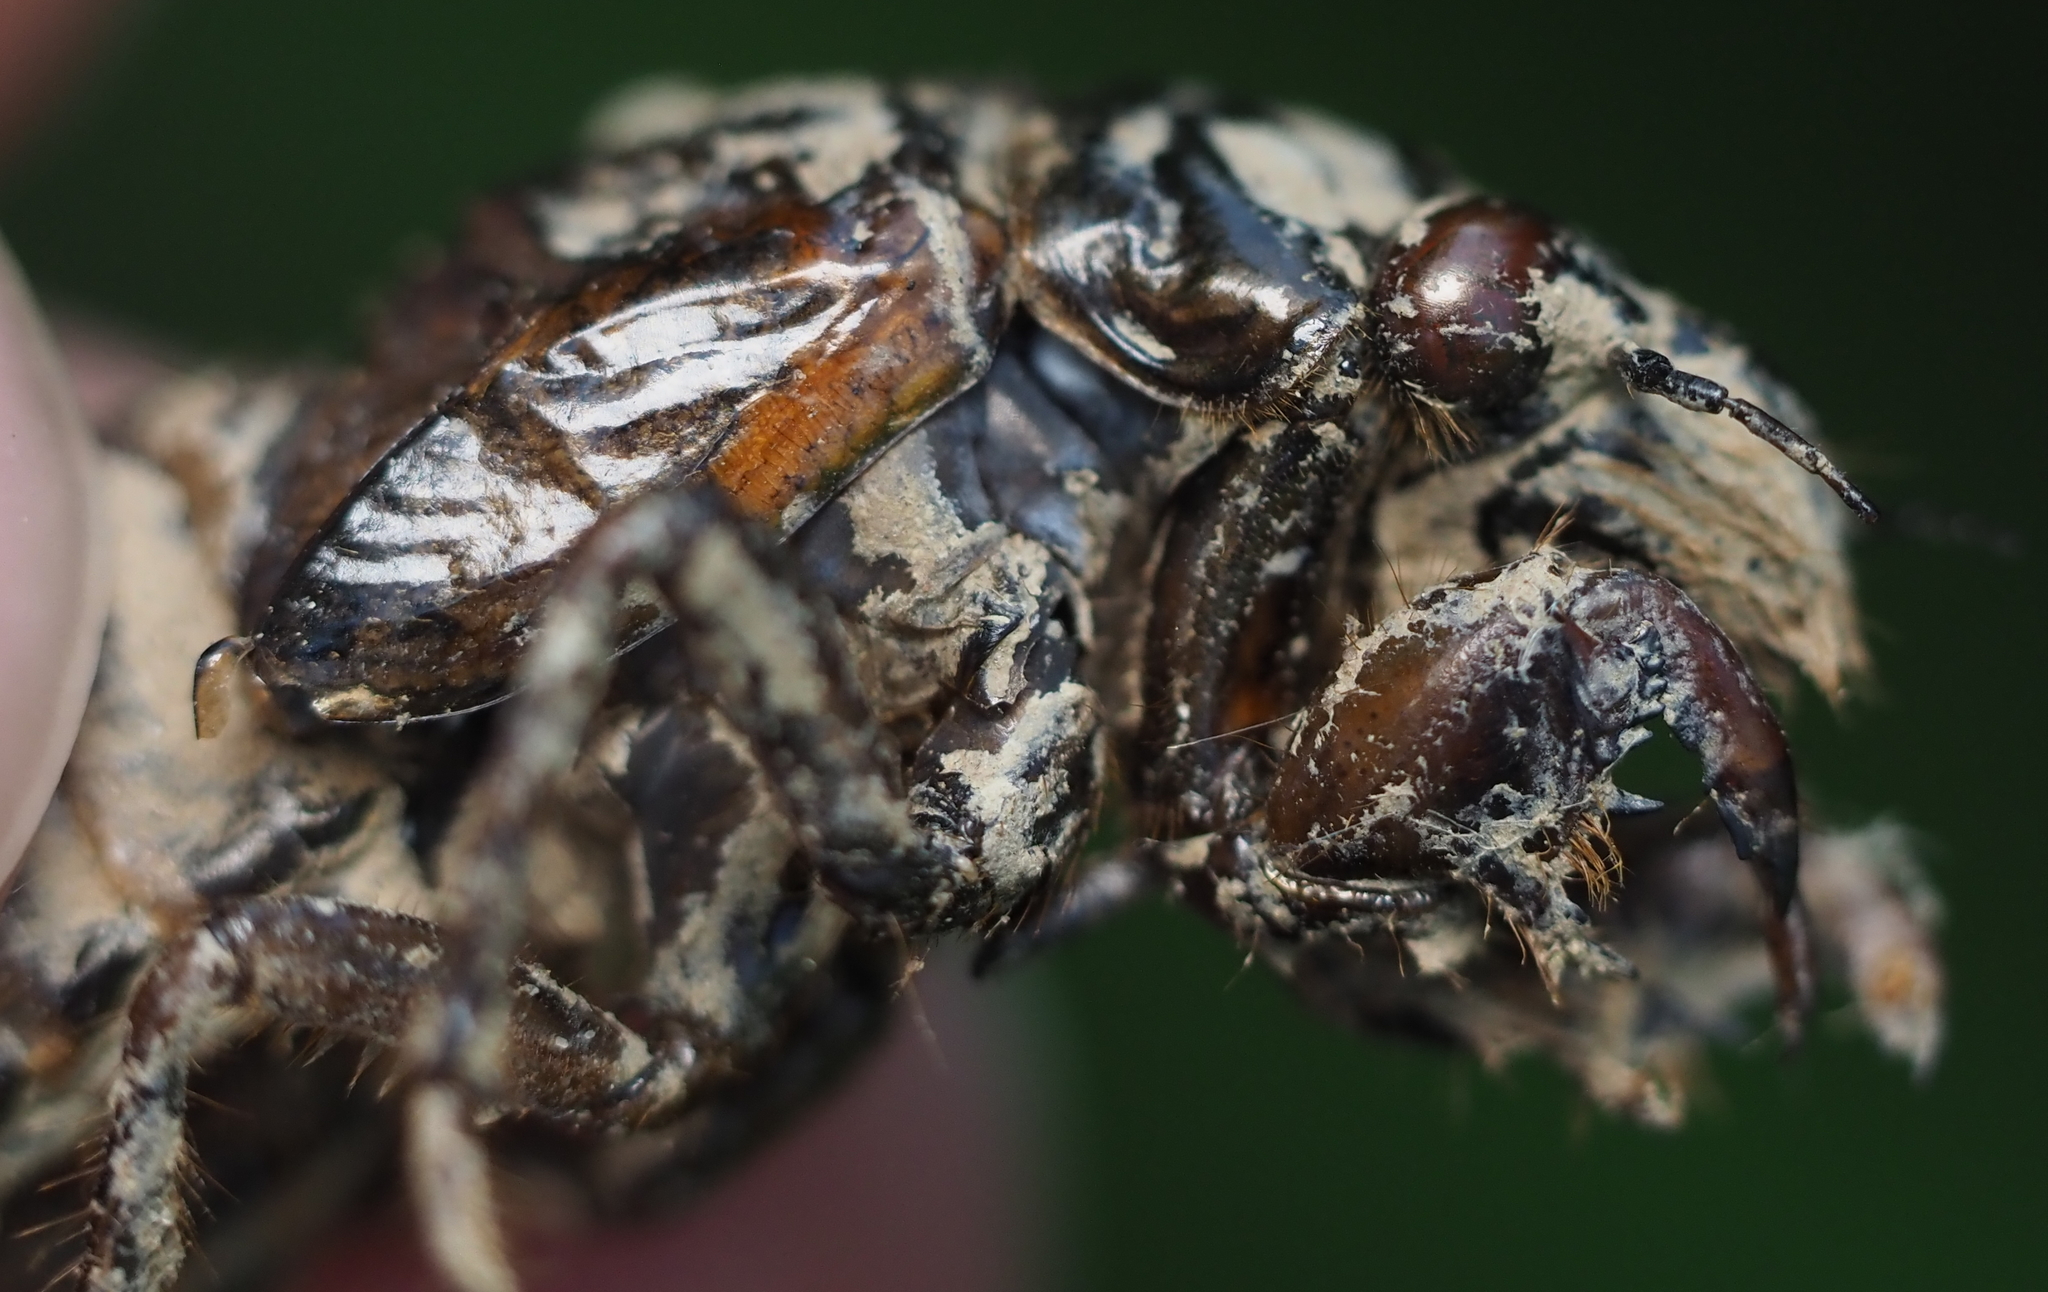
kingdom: Animalia
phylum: Arthropoda
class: Insecta
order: Hemiptera
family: Cicadidae
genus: Magicicada
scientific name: Magicicada septendecim
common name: Periodical cicada
